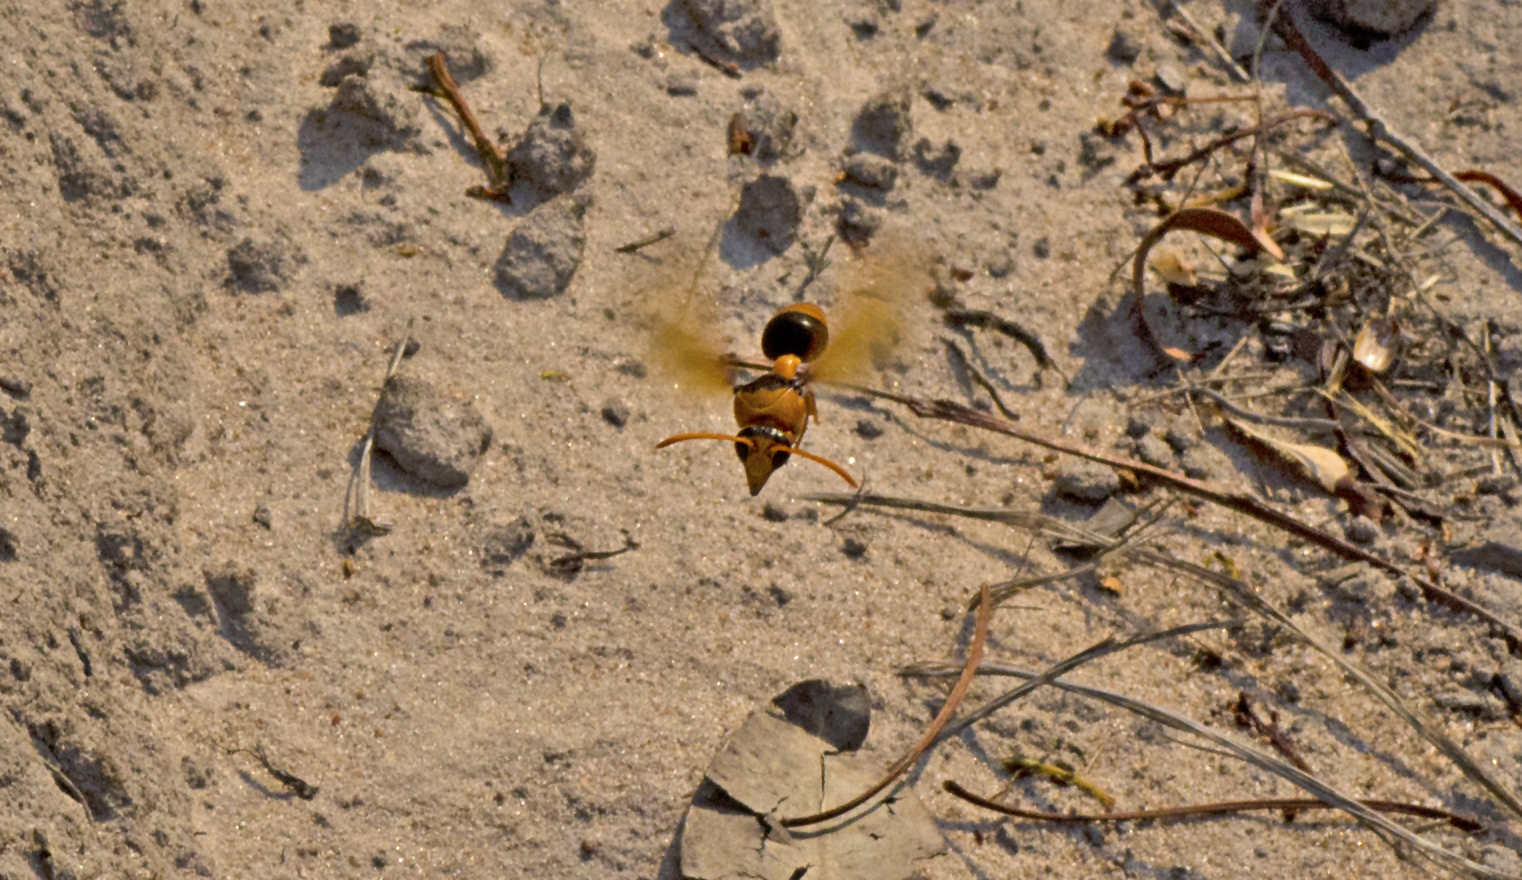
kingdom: Animalia
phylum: Arthropoda
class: Insecta
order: Hymenoptera
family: Eumenidae
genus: Delta
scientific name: Delta latreillei
